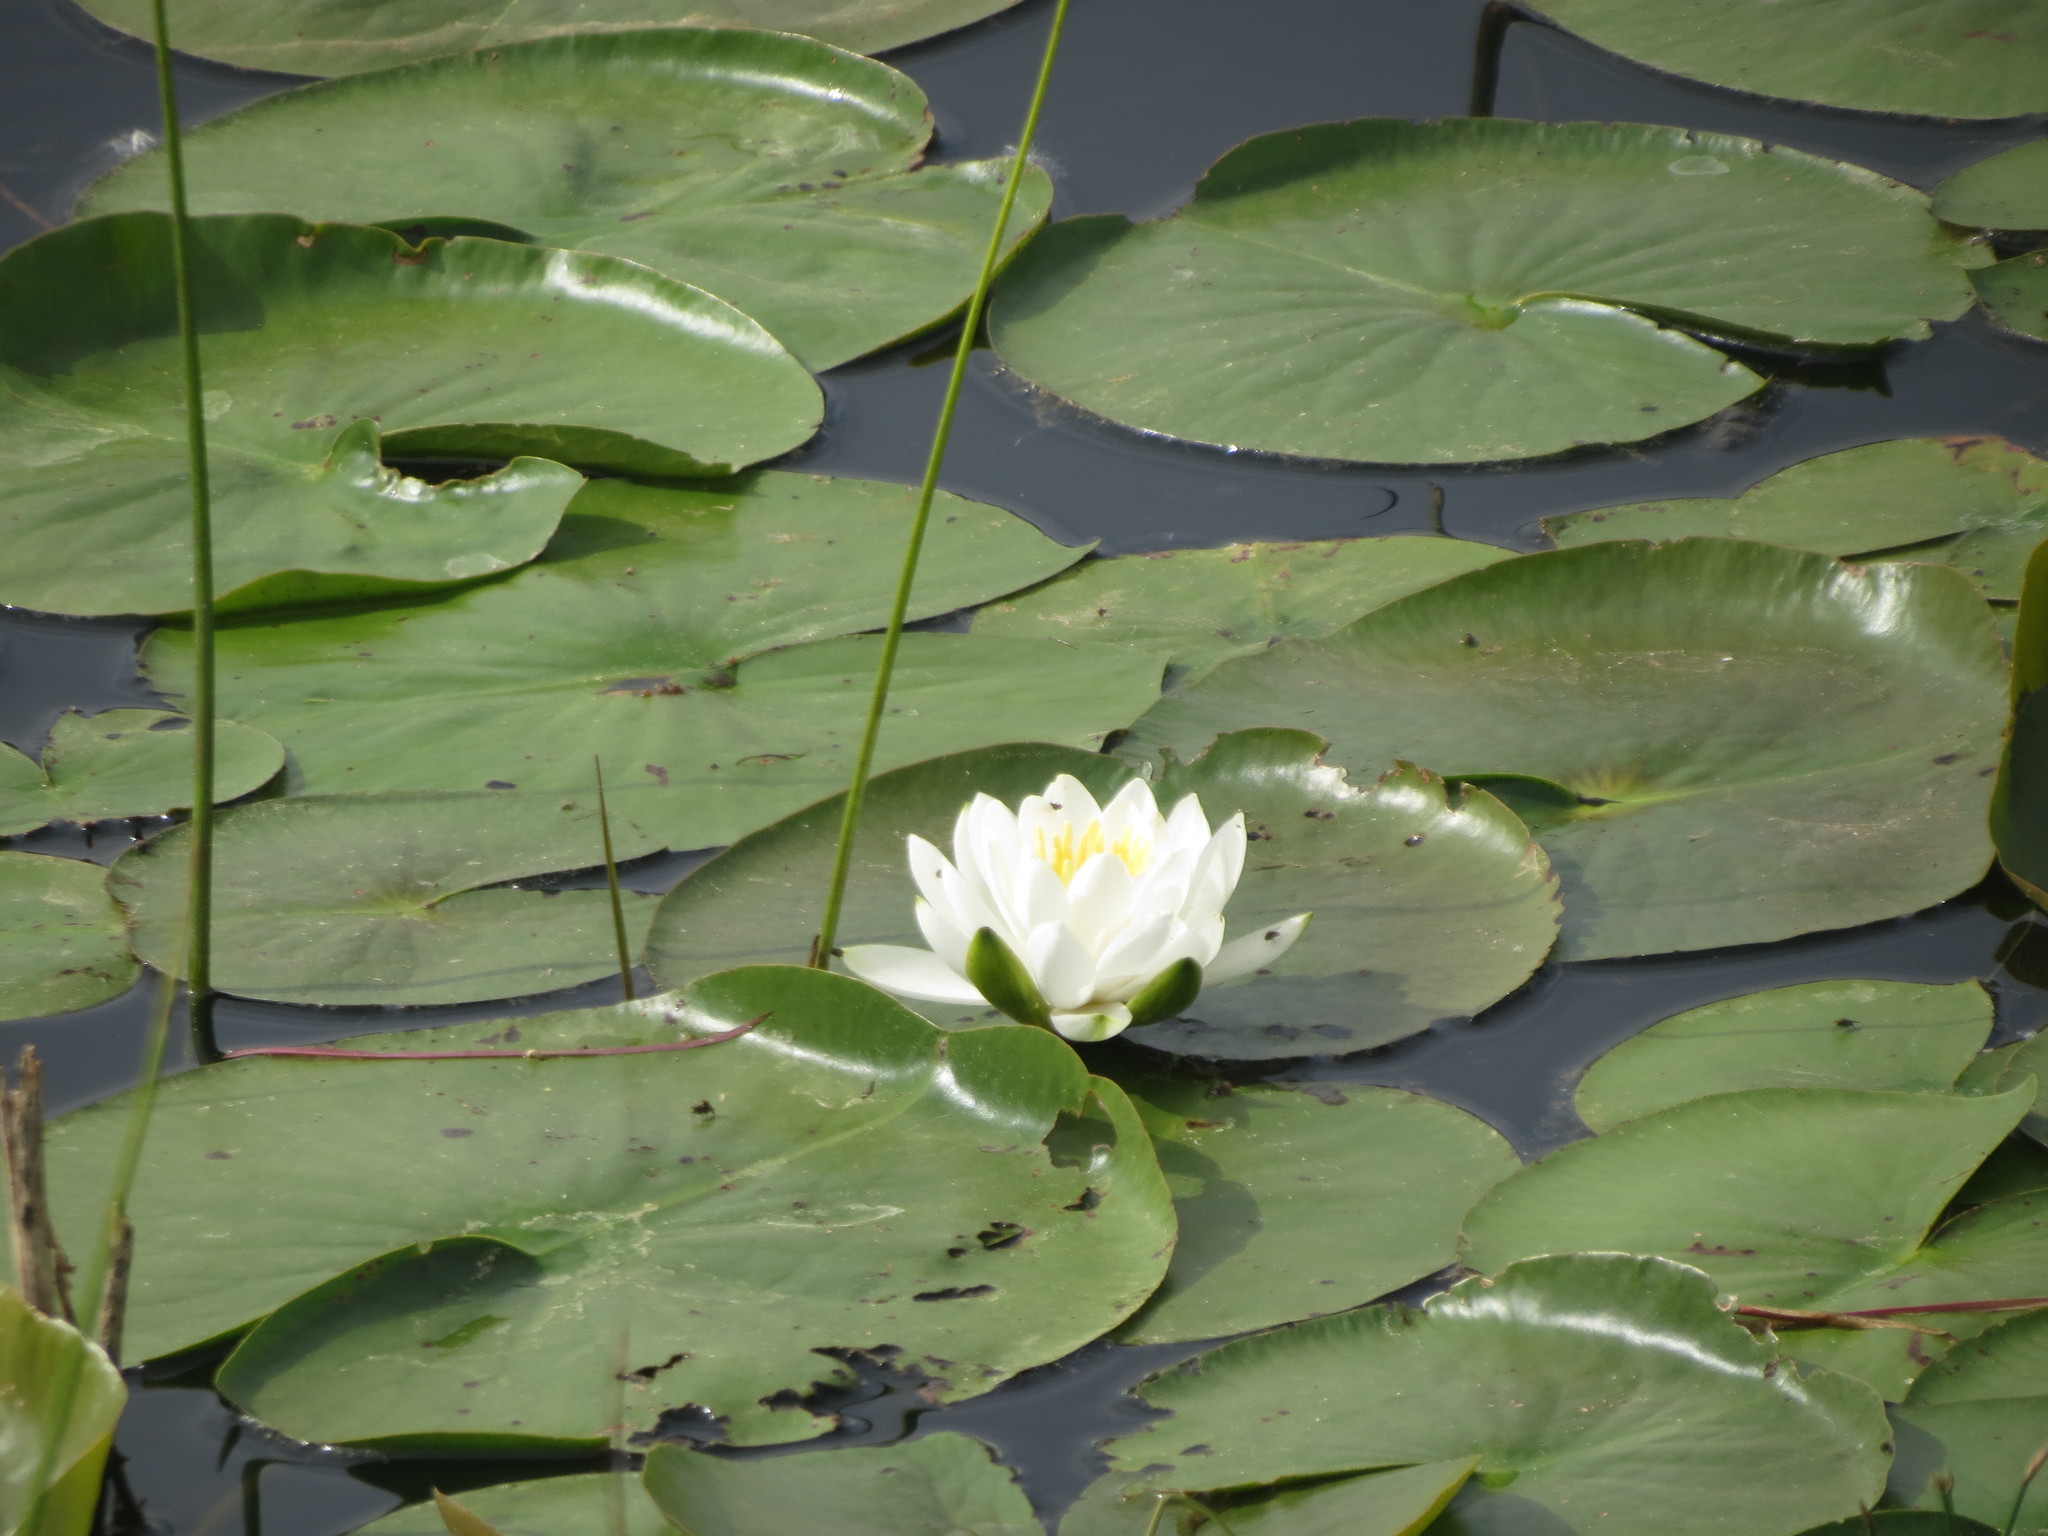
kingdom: Plantae
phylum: Tracheophyta
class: Magnoliopsida
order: Nymphaeales
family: Nymphaeaceae
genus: Nymphaea
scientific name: Nymphaea odorata
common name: Fragrant water-lily
